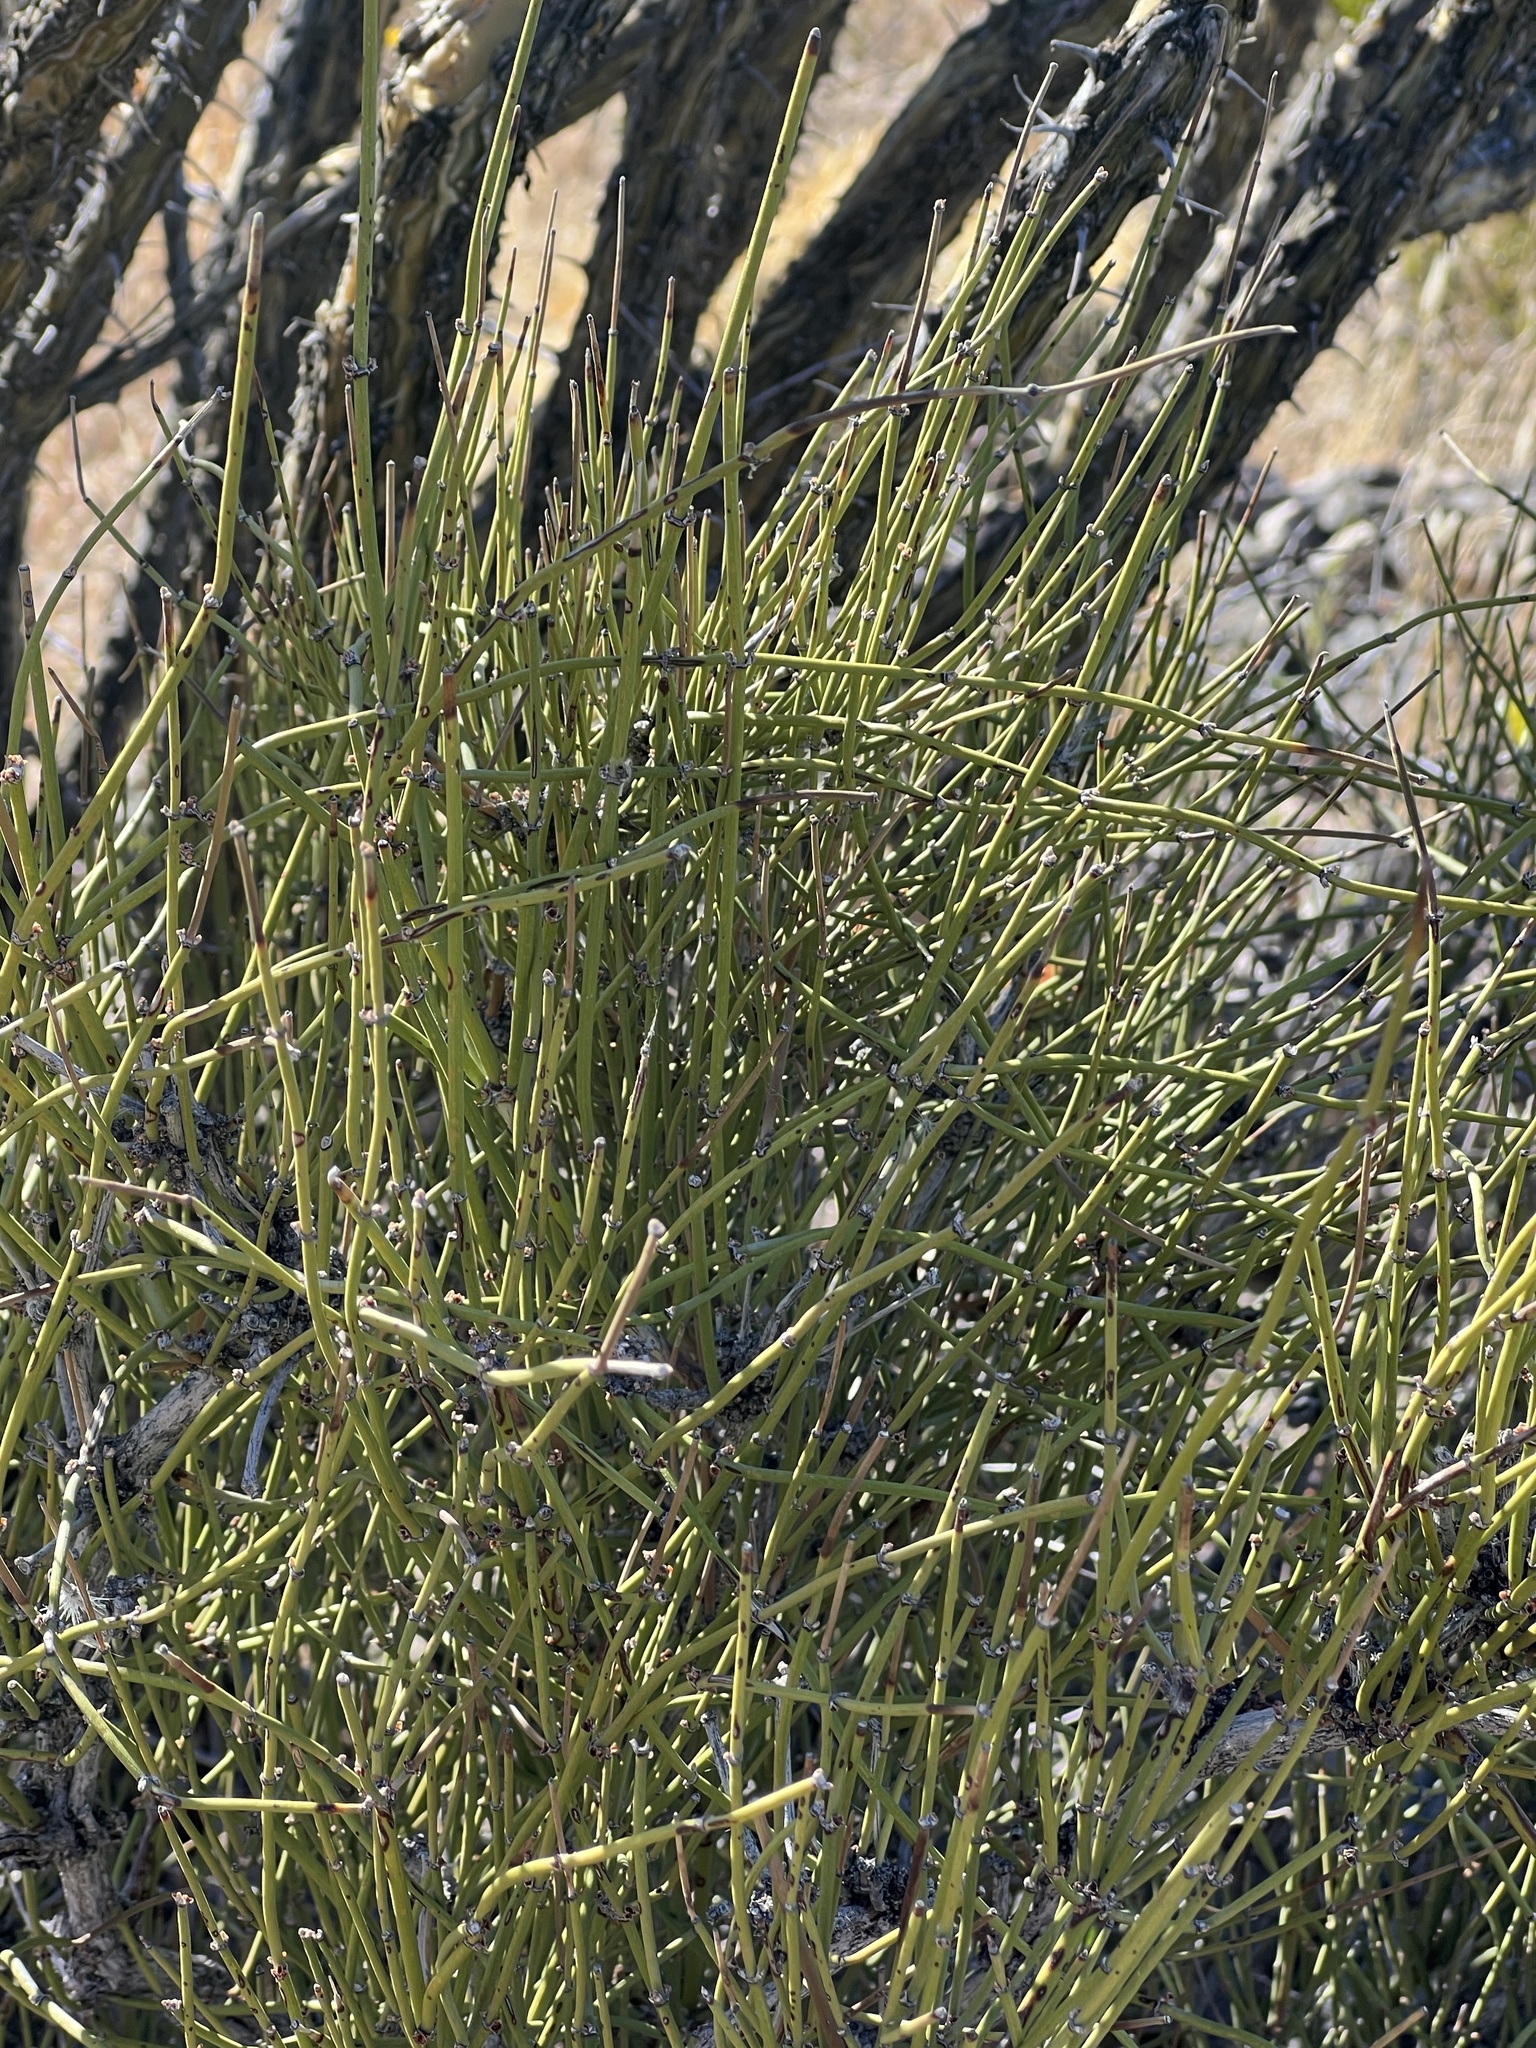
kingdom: Plantae
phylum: Tracheophyta
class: Gnetopsida
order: Ephedrales
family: Ephedraceae
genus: Ephedra
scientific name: Ephedra viridis
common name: Green ephedra
